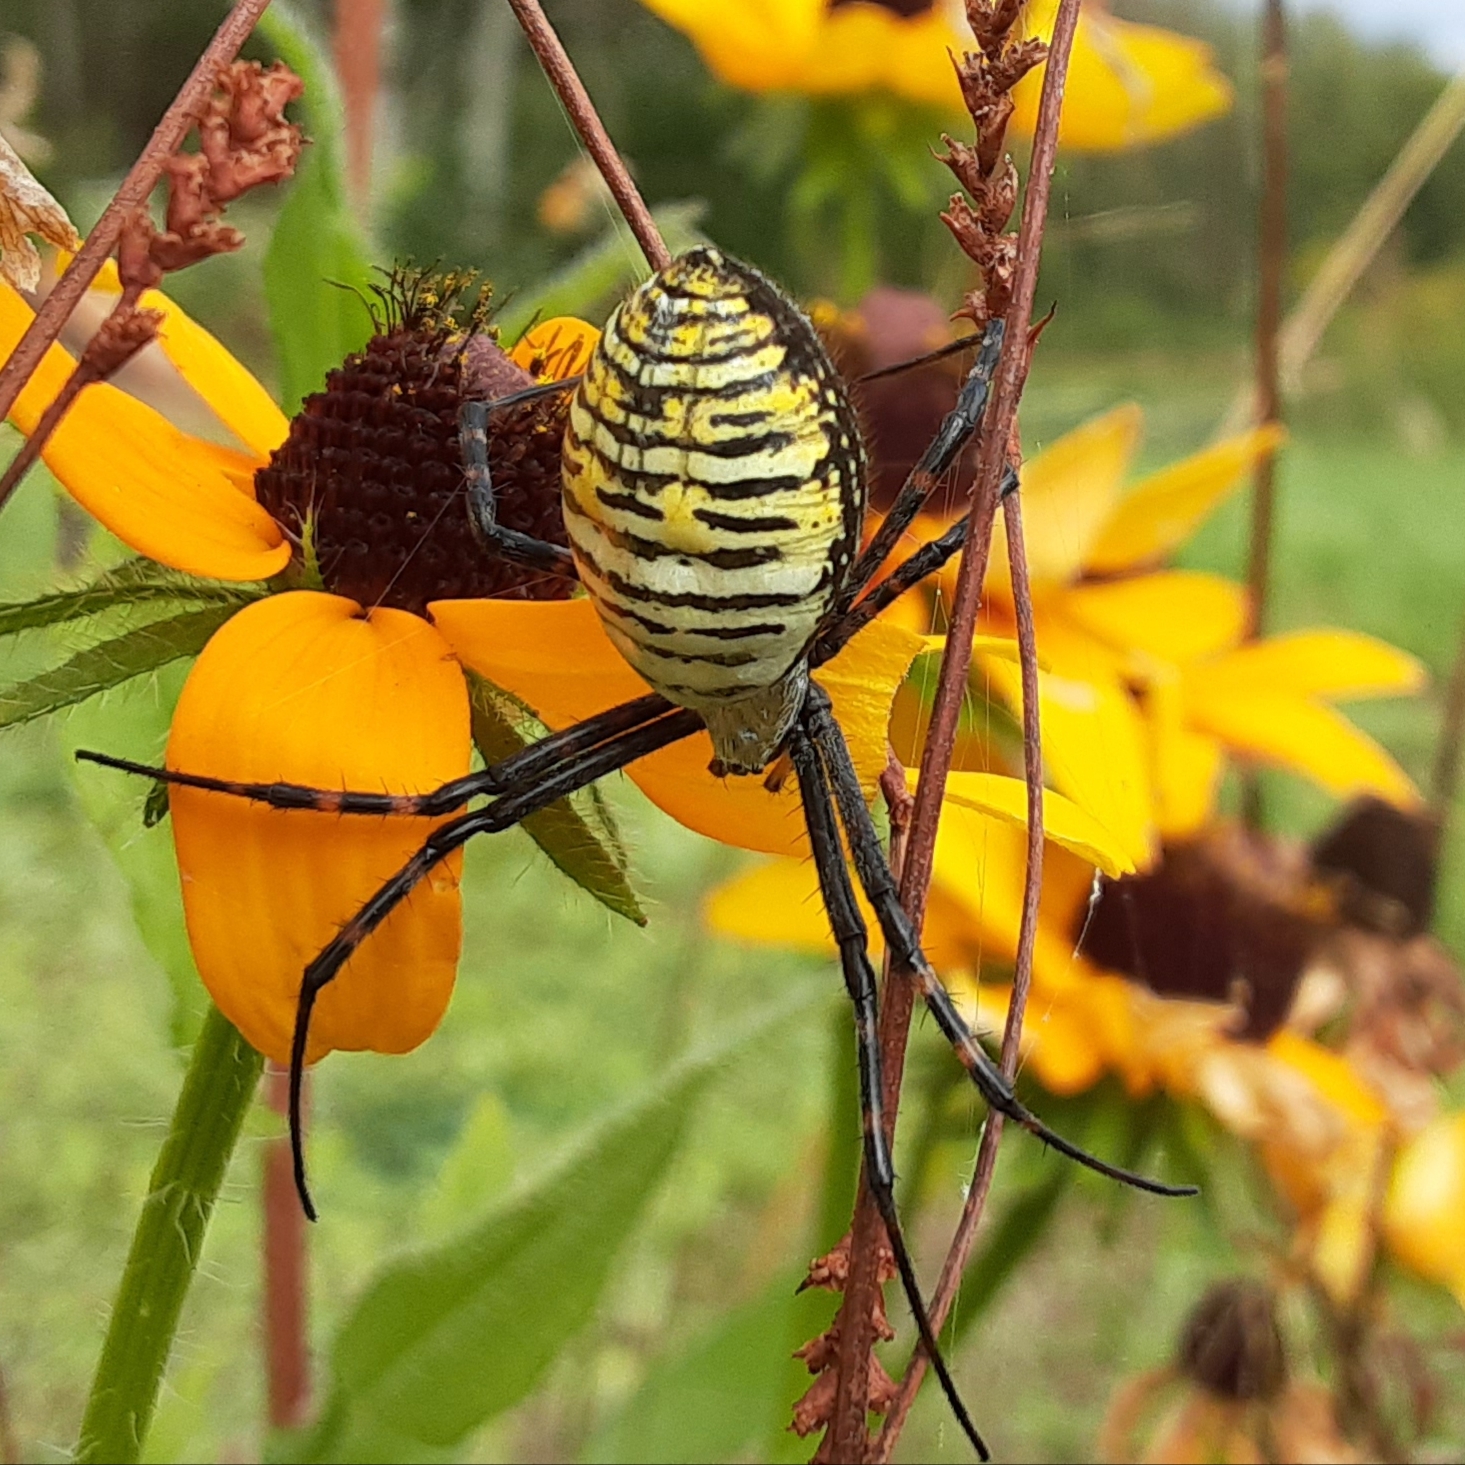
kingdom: Animalia
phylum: Arthropoda
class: Arachnida
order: Araneae
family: Araneidae
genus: Argiope
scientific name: Argiope trifasciata
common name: Banded garden spider
